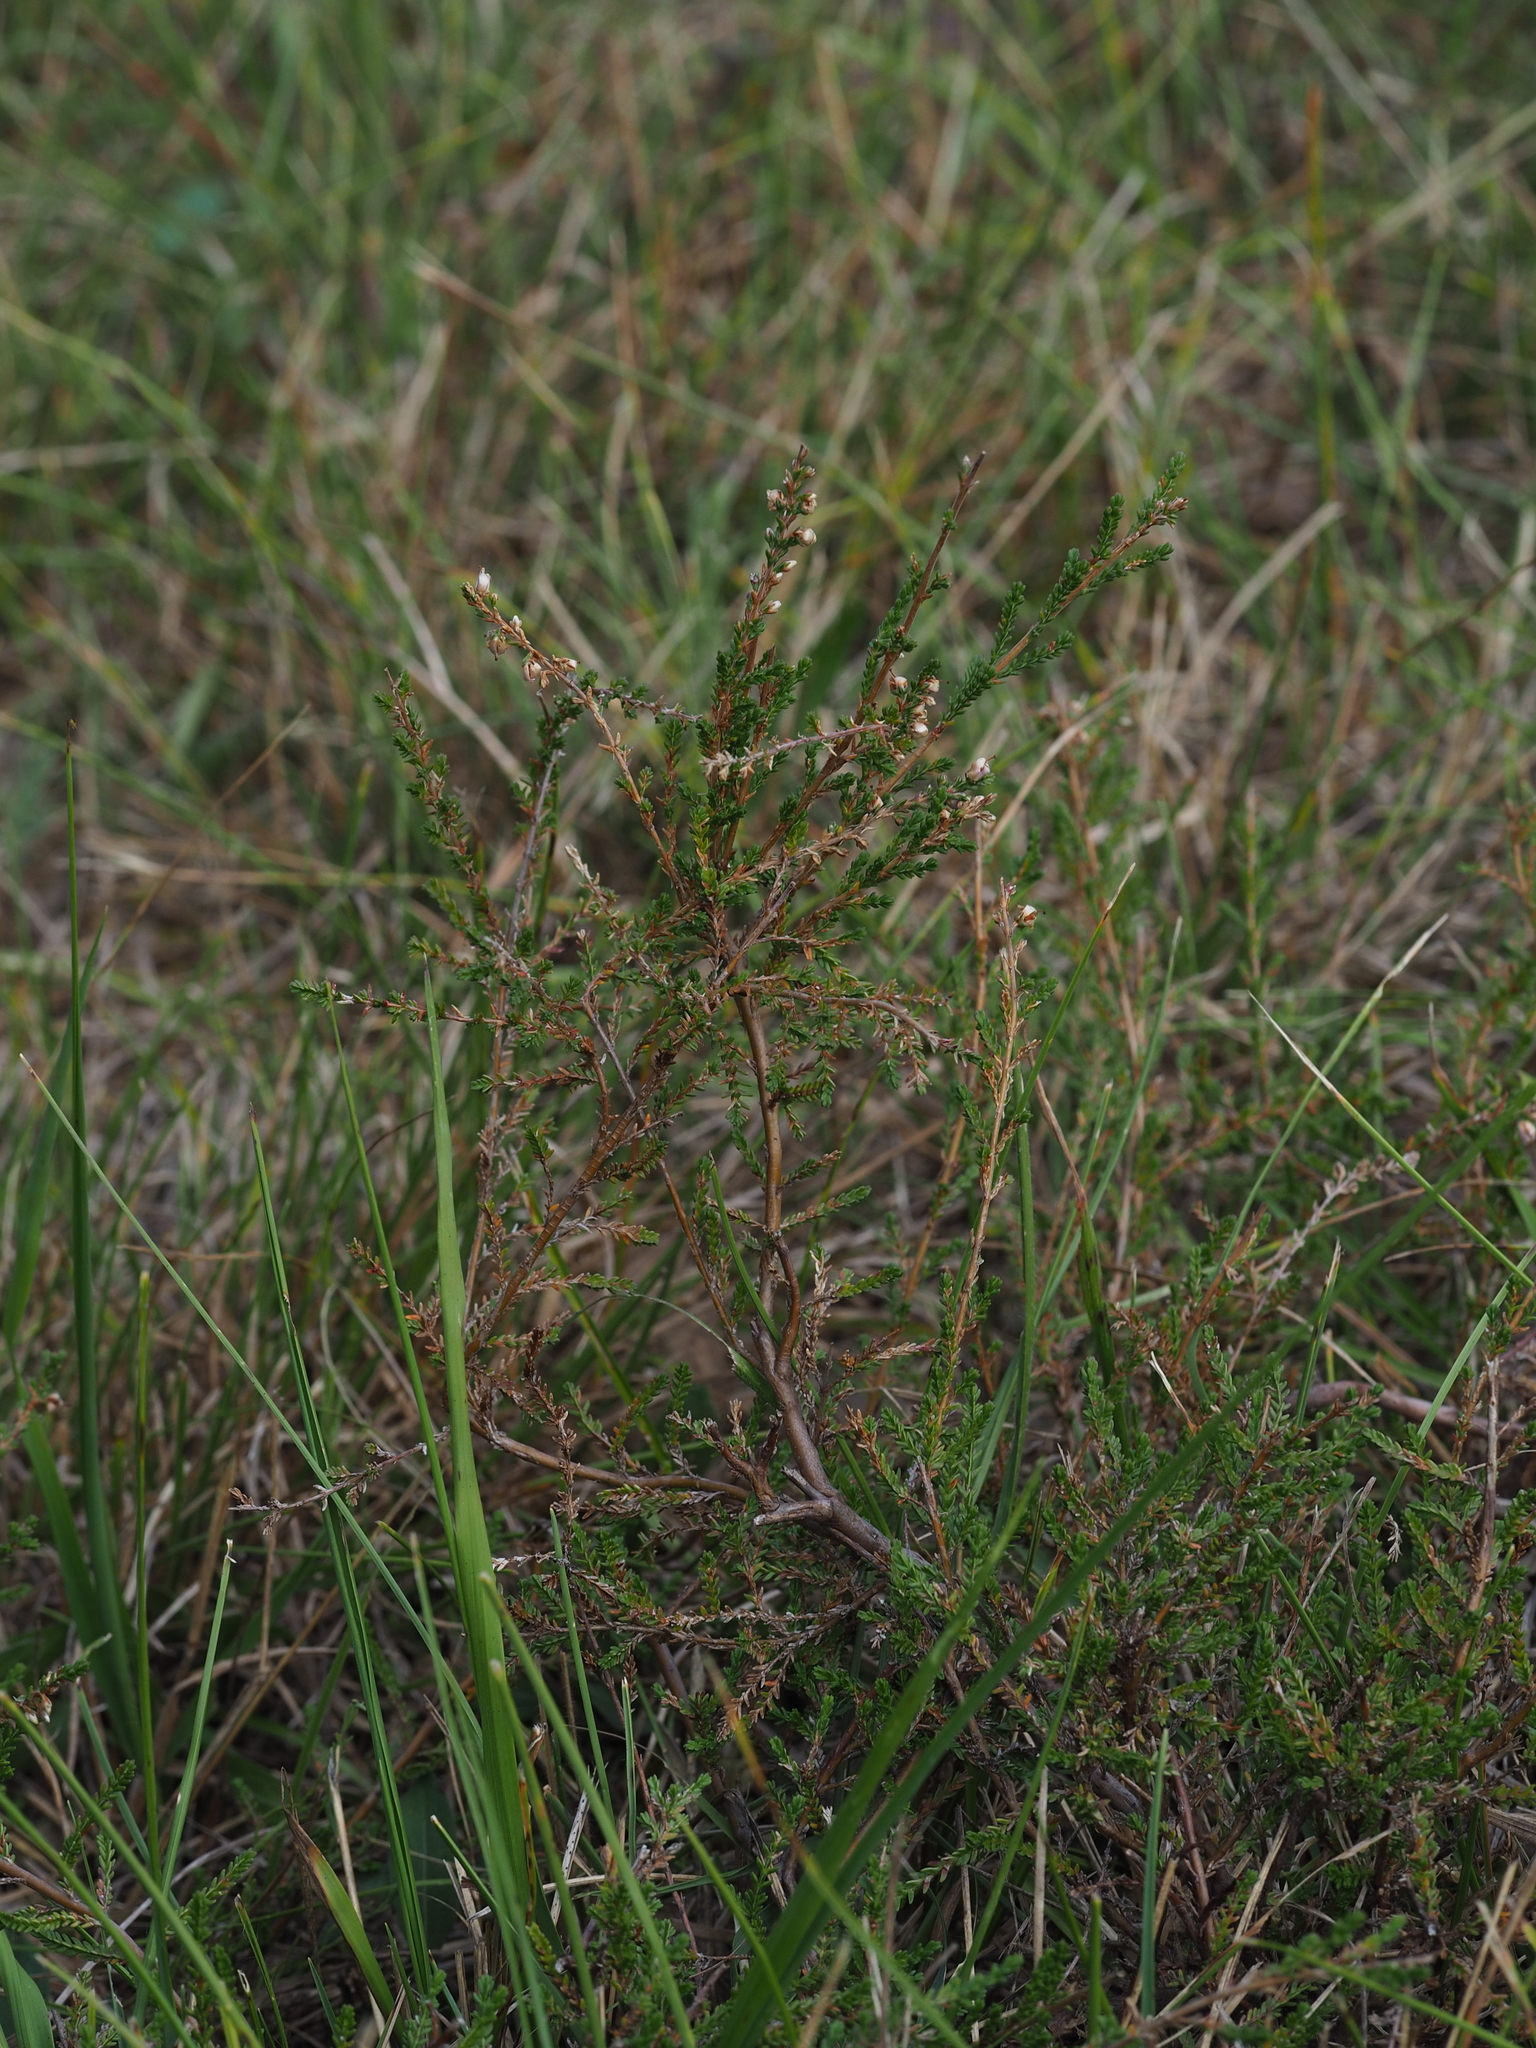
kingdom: Plantae
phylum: Tracheophyta
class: Magnoliopsida
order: Ericales
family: Ericaceae
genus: Calluna
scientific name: Calluna vulgaris
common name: Heather
